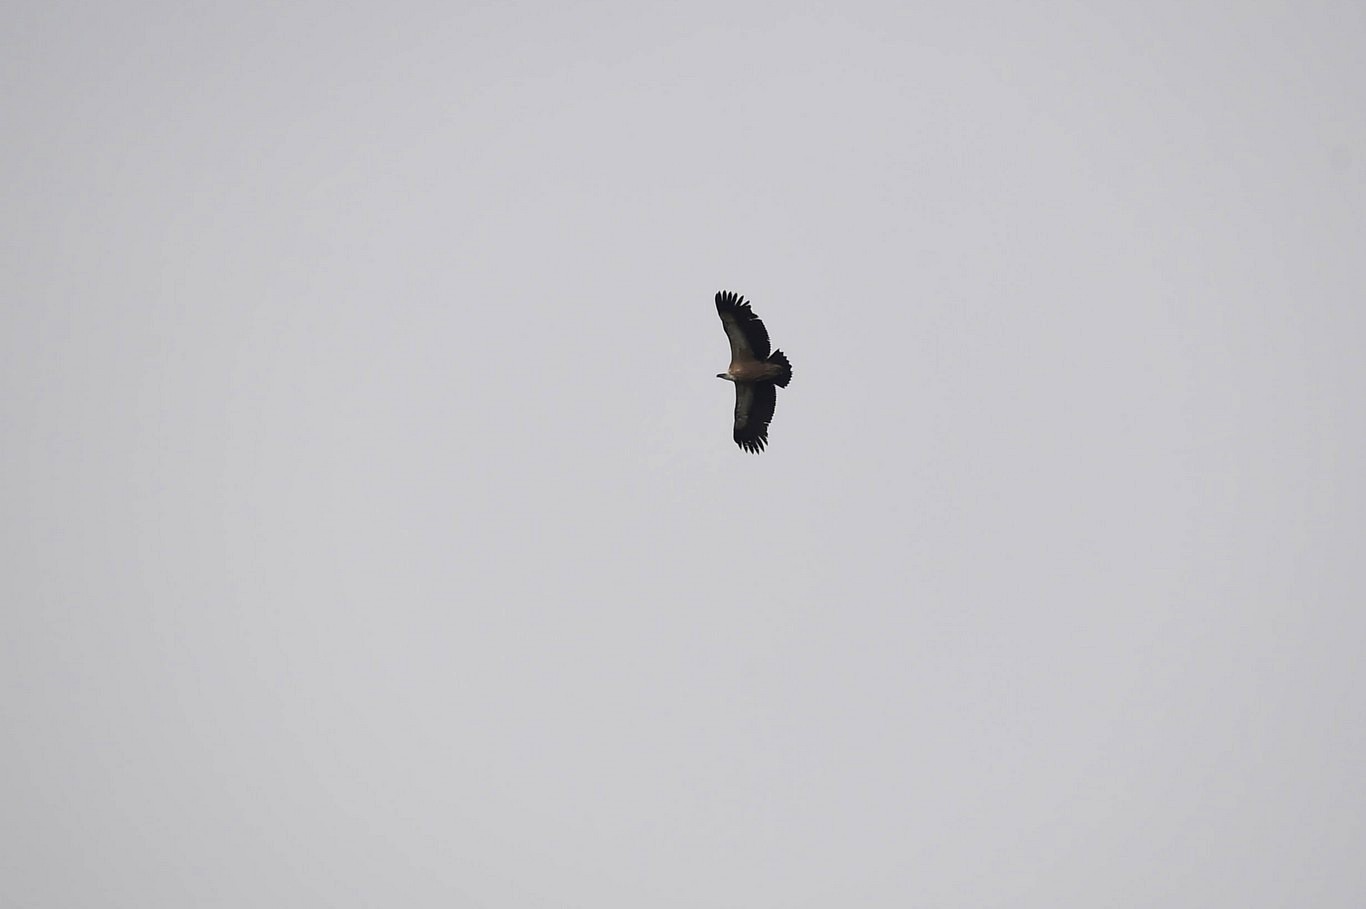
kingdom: Animalia
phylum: Chordata
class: Aves
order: Accipitriformes
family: Accipitridae
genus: Gyps
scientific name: Gyps fulvus
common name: Griffon vulture
